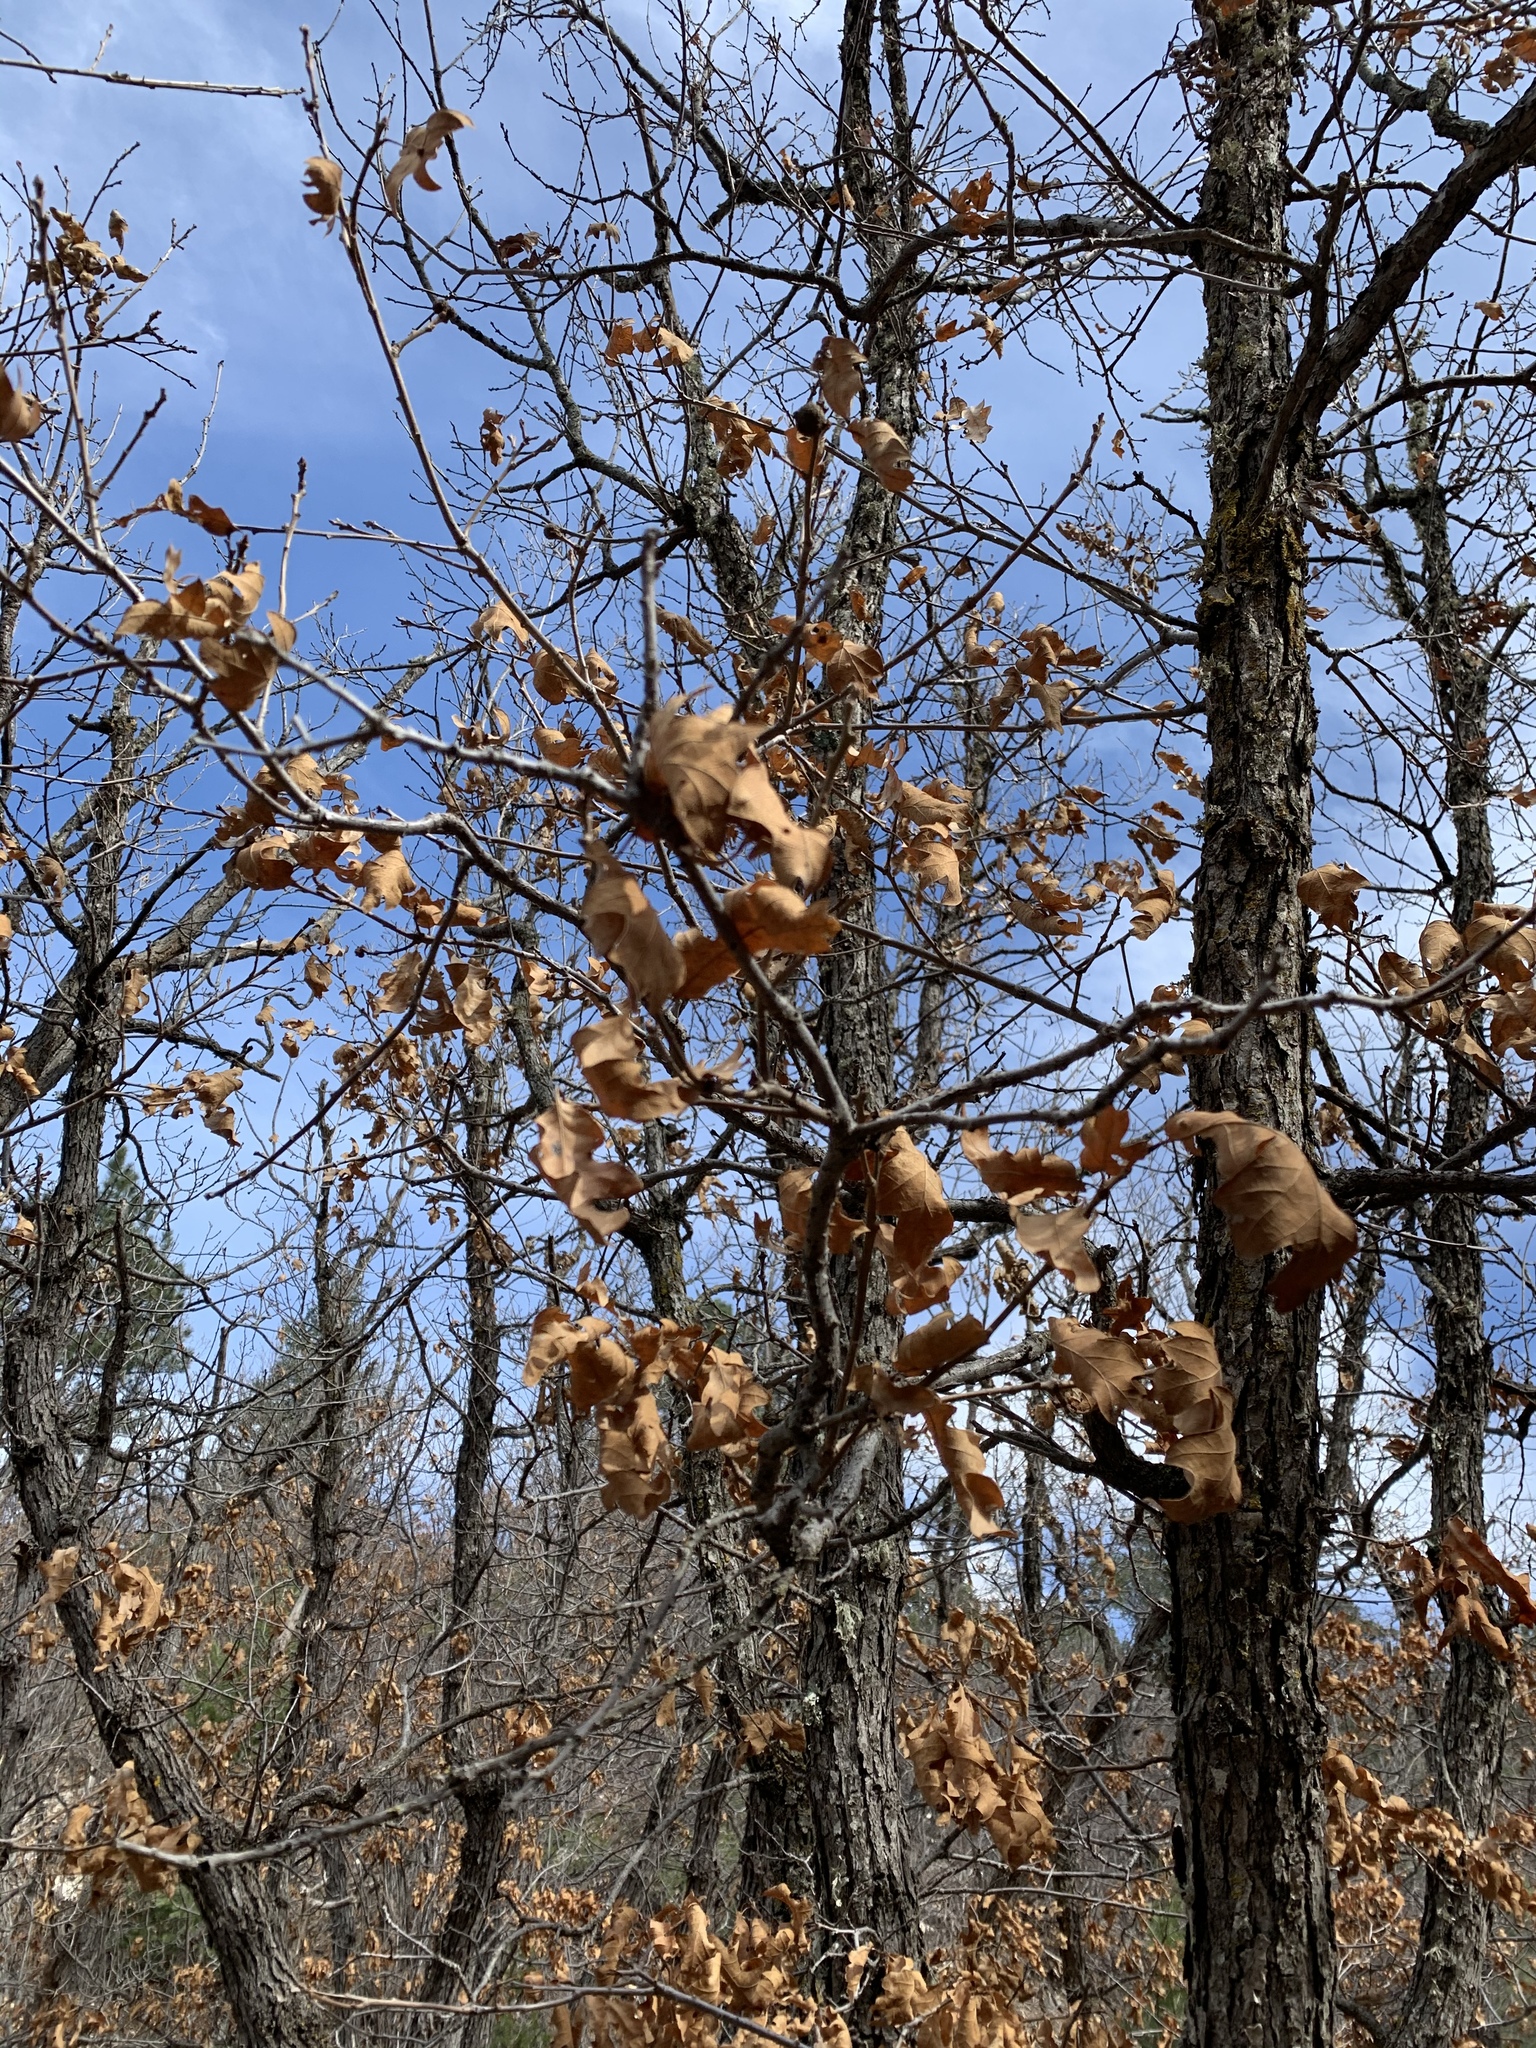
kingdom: Plantae
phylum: Tracheophyta
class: Magnoliopsida
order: Fagales
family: Fagaceae
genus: Quercus
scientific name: Quercus gambelii
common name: Gambel oak
